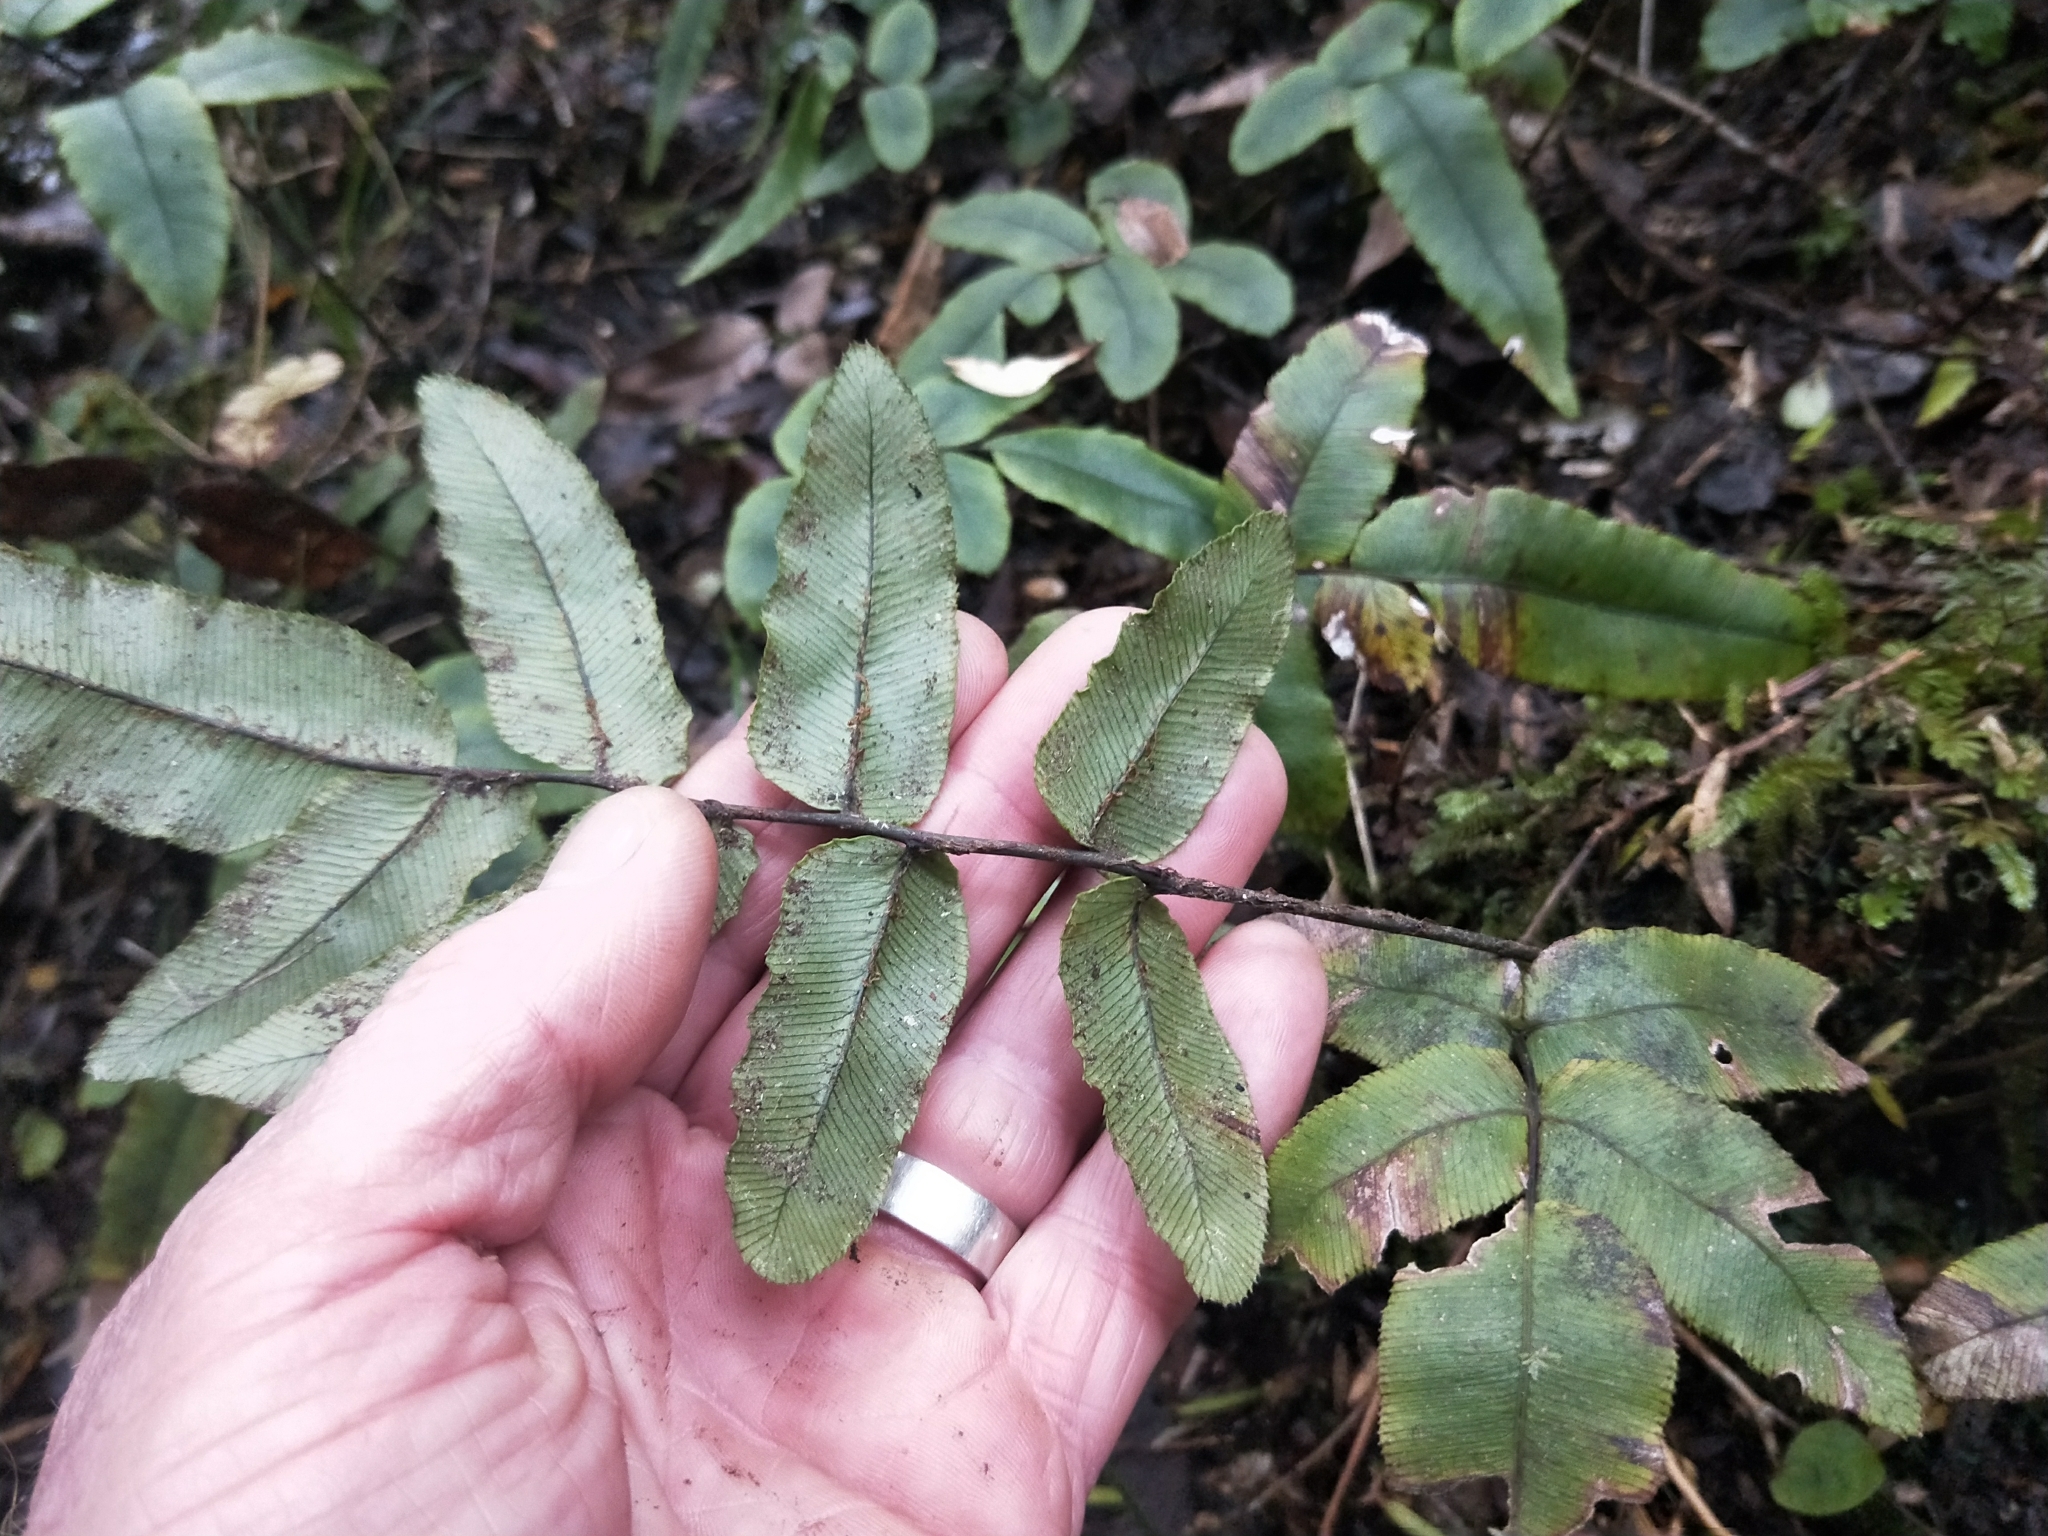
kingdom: Plantae
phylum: Tracheophyta
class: Polypodiopsida
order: Polypodiales
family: Blechnaceae
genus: Parablechnum
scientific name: Parablechnum procerum
